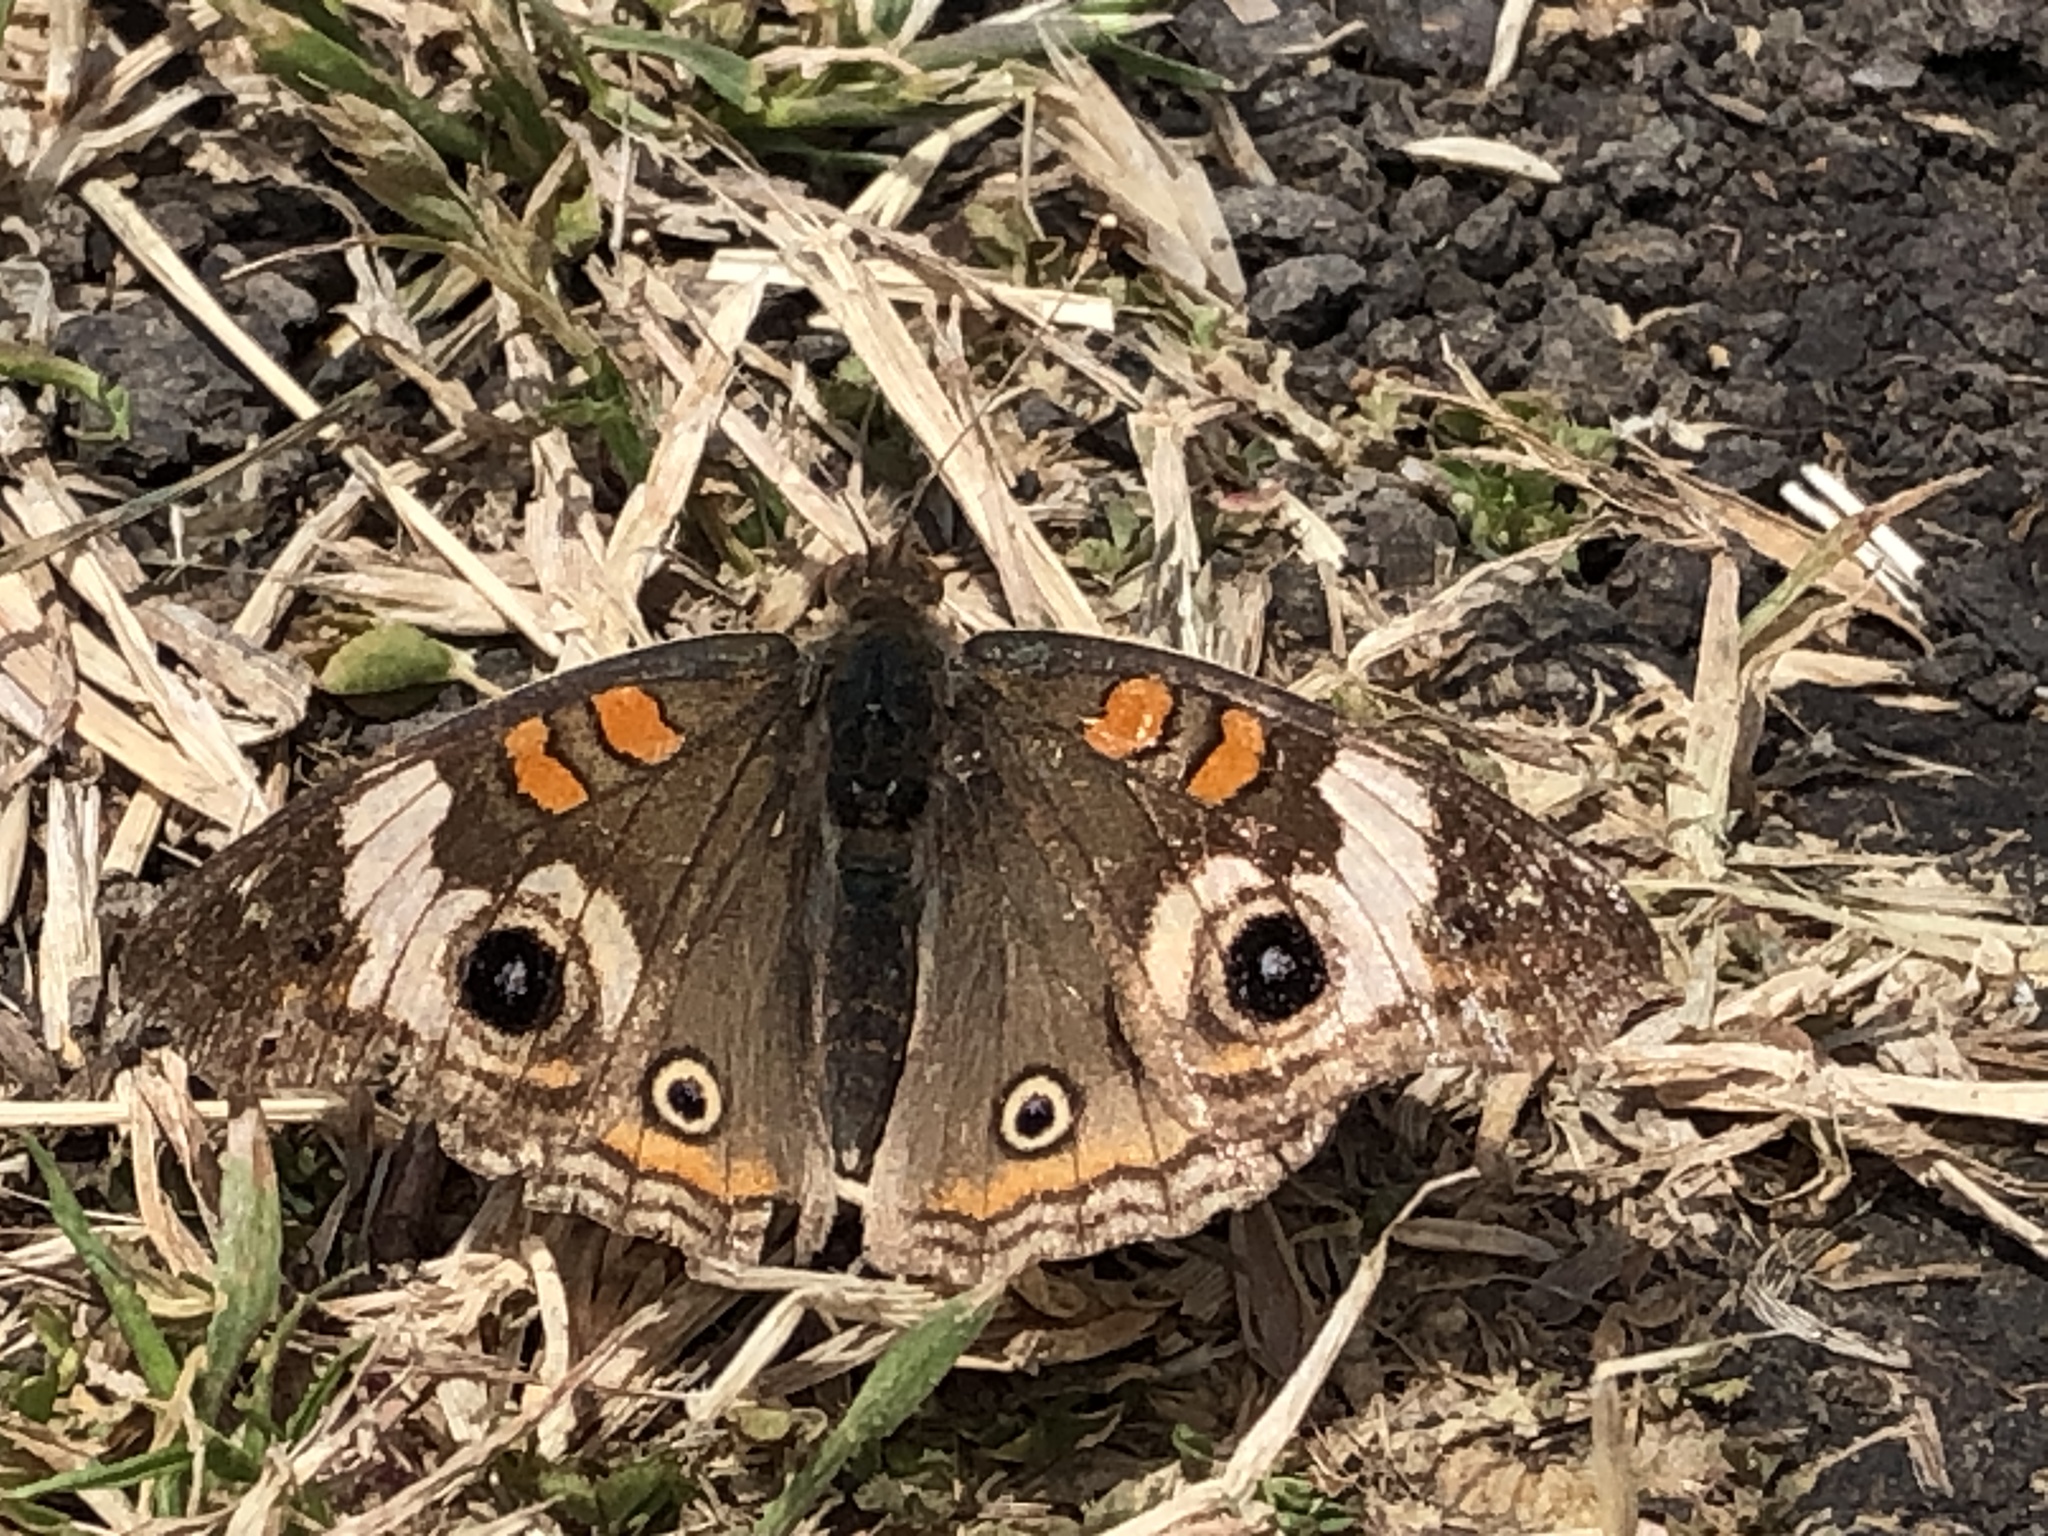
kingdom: Animalia
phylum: Arthropoda
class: Insecta
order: Lepidoptera
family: Nymphalidae
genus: Junonia
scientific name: Junonia grisea
